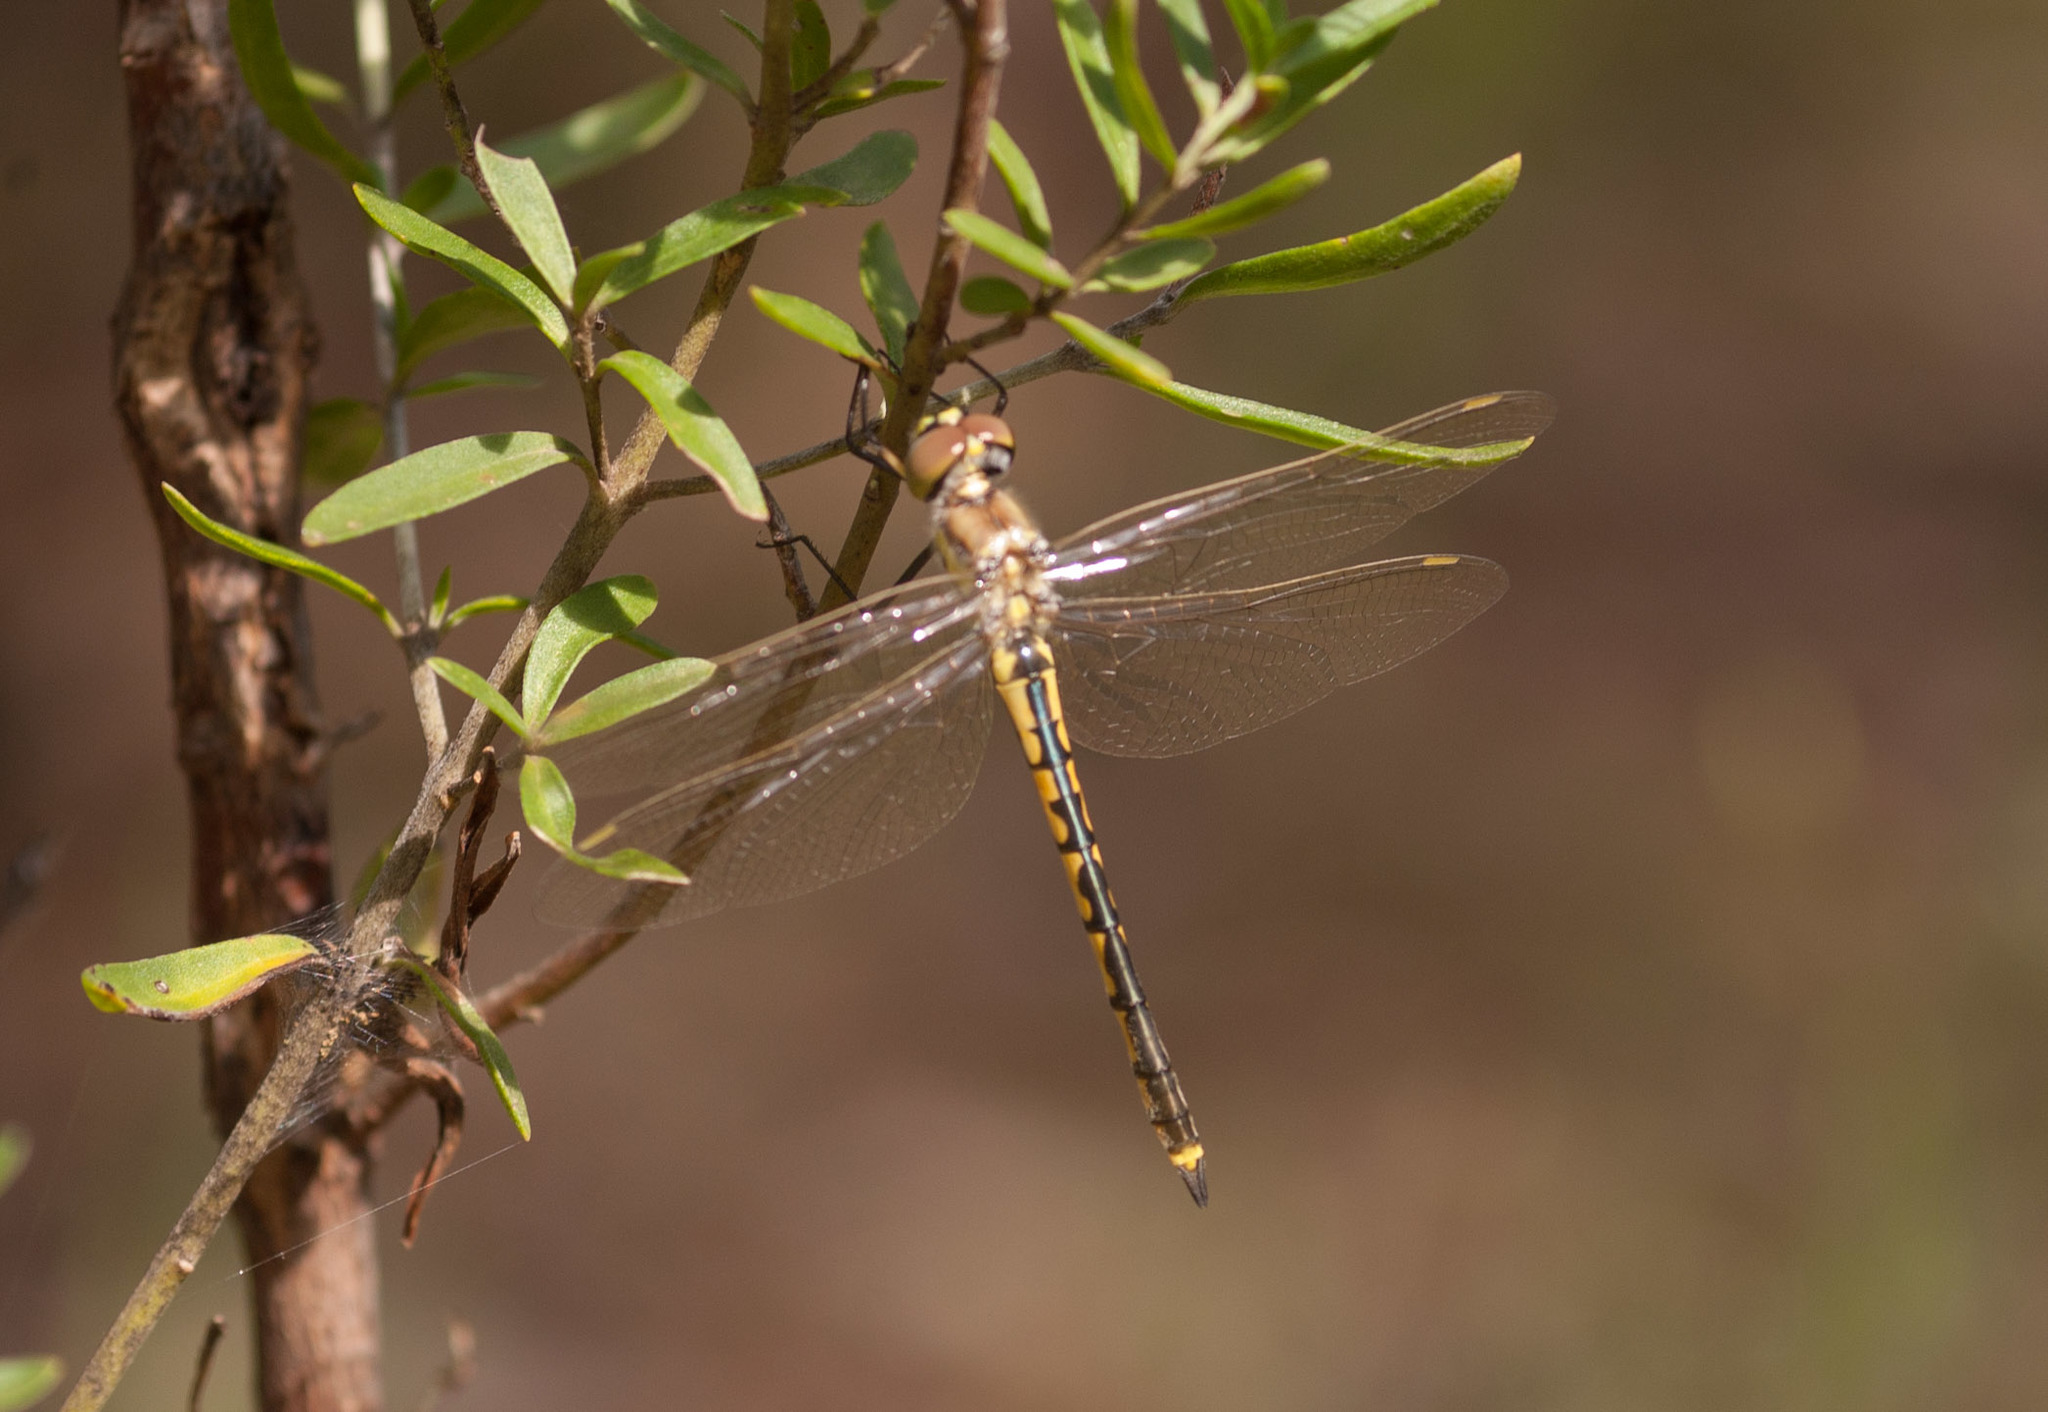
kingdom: Animalia
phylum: Arthropoda
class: Insecta
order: Odonata
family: Corduliidae
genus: Hemicordulia
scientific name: Hemicordulia tau
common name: Tau emerald
